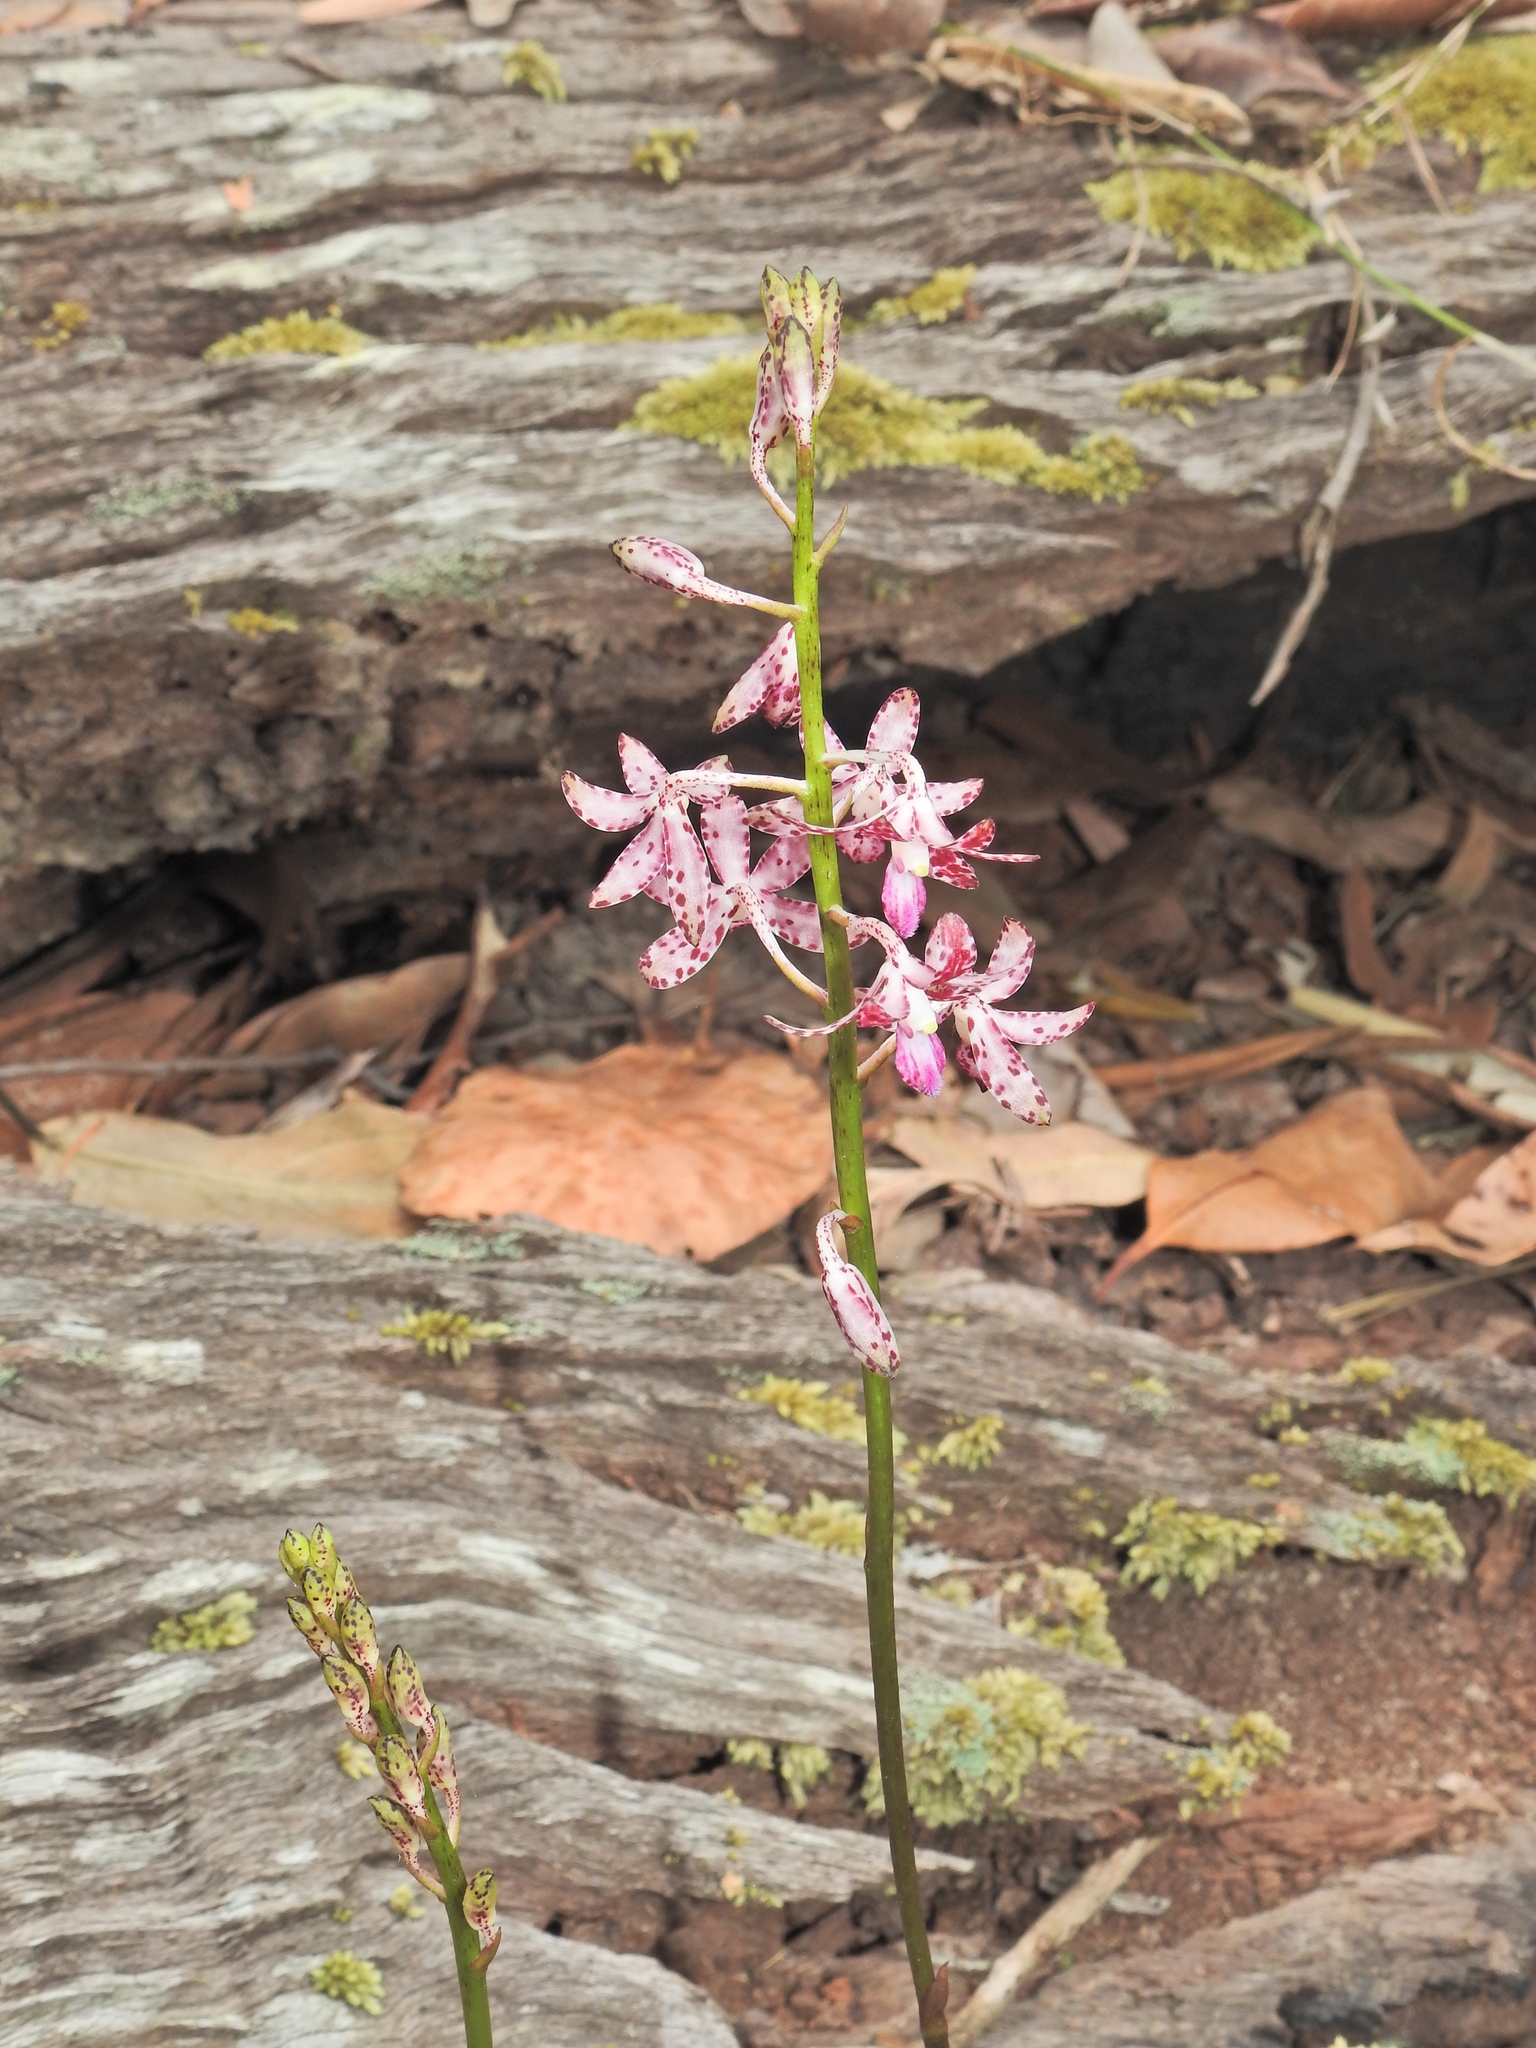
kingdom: Plantae
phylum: Tracheophyta
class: Liliopsida
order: Asparagales
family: Orchidaceae
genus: Dipodium
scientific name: Dipodium variegatum
